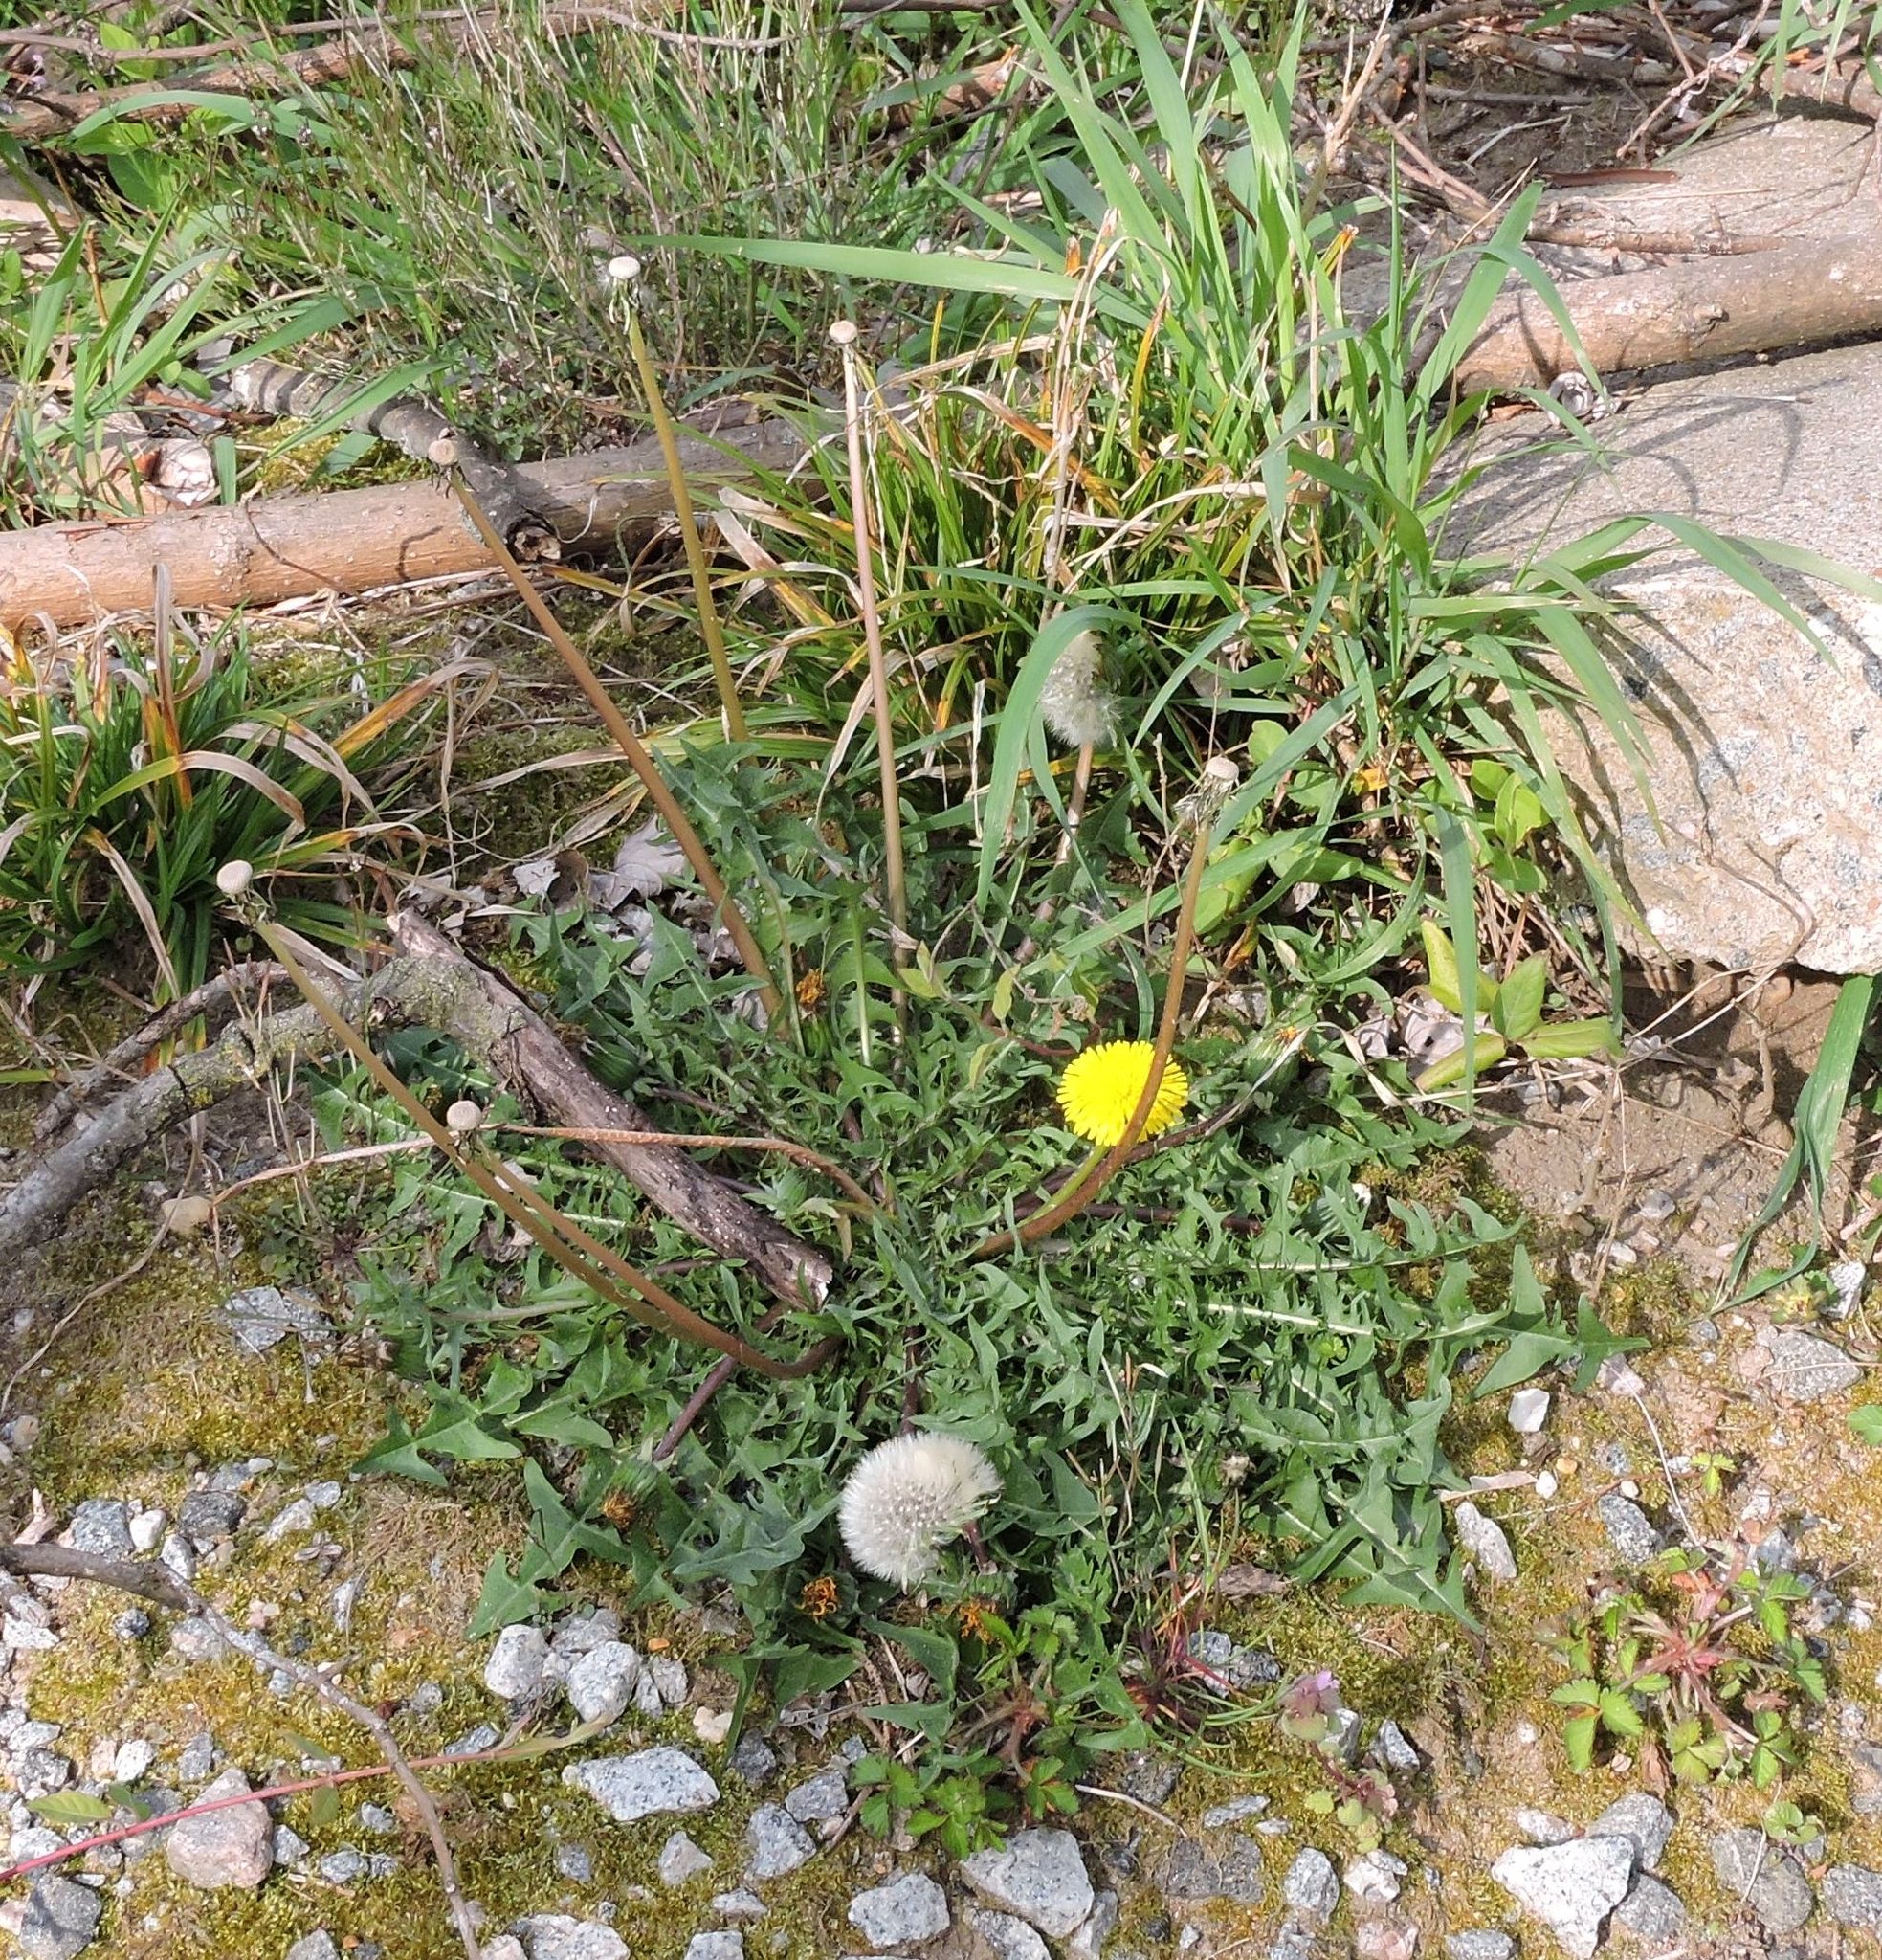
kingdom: Plantae
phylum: Tracheophyta
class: Magnoliopsida
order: Asterales
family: Asteraceae
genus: Taraxacum
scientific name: Taraxacum officinale
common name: Common dandelion
